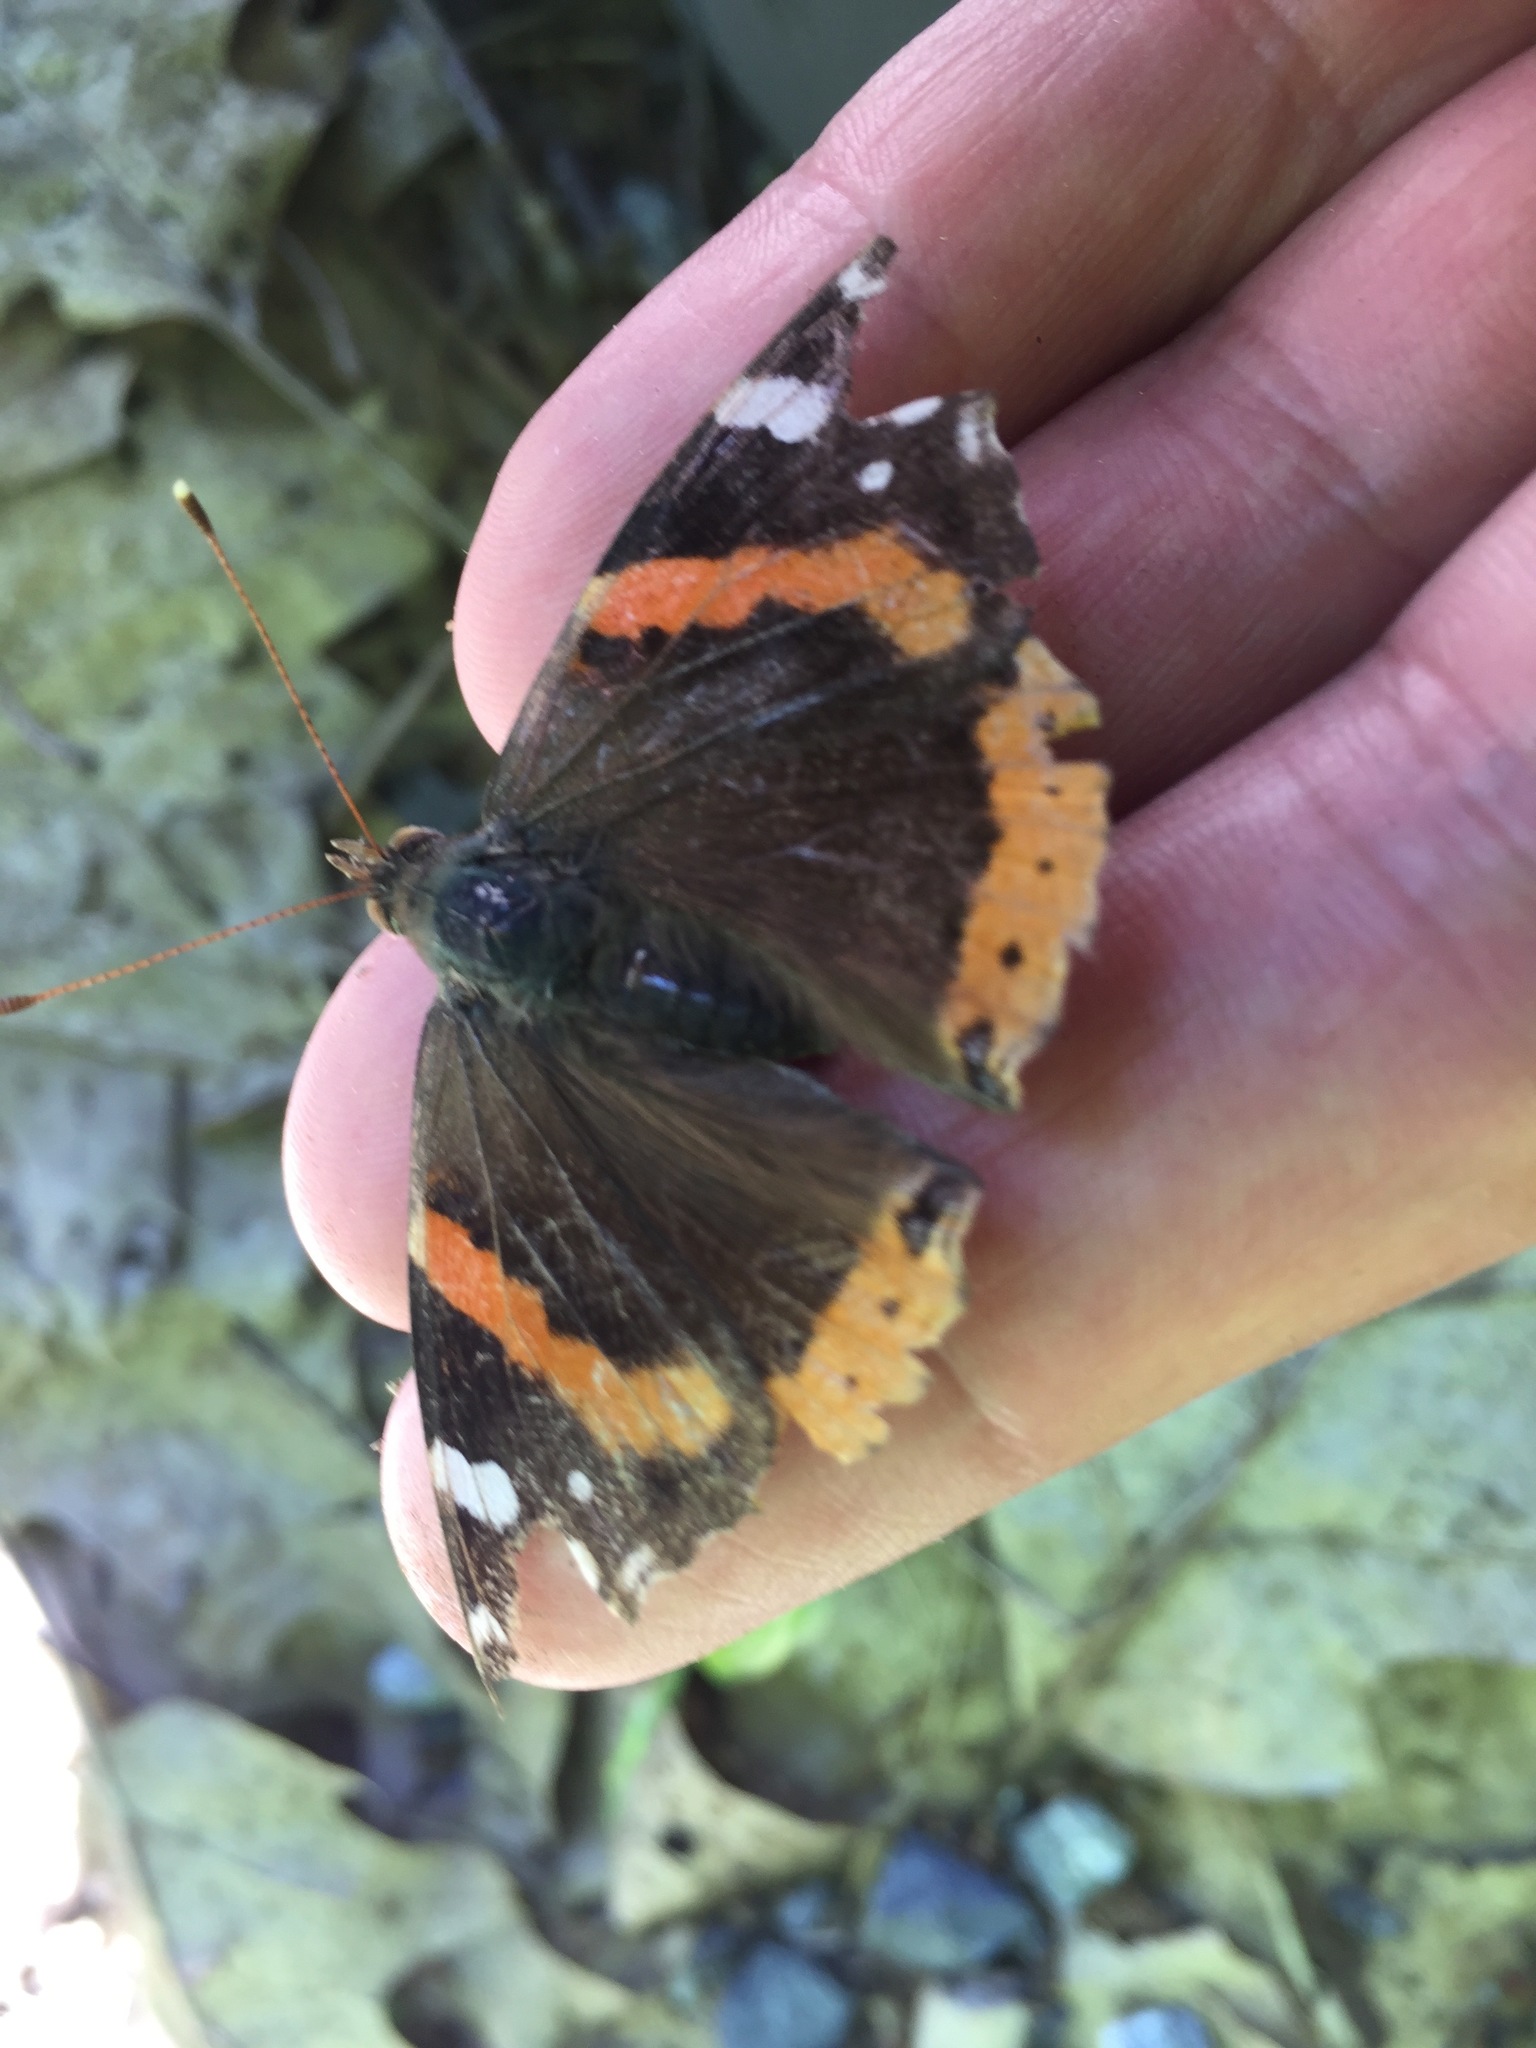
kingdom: Animalia
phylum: Arthropoda
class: Insecta
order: Lepidoptera
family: Nymphalidae
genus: Vanessa
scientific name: Vanessa atalanta
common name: Red admiral
